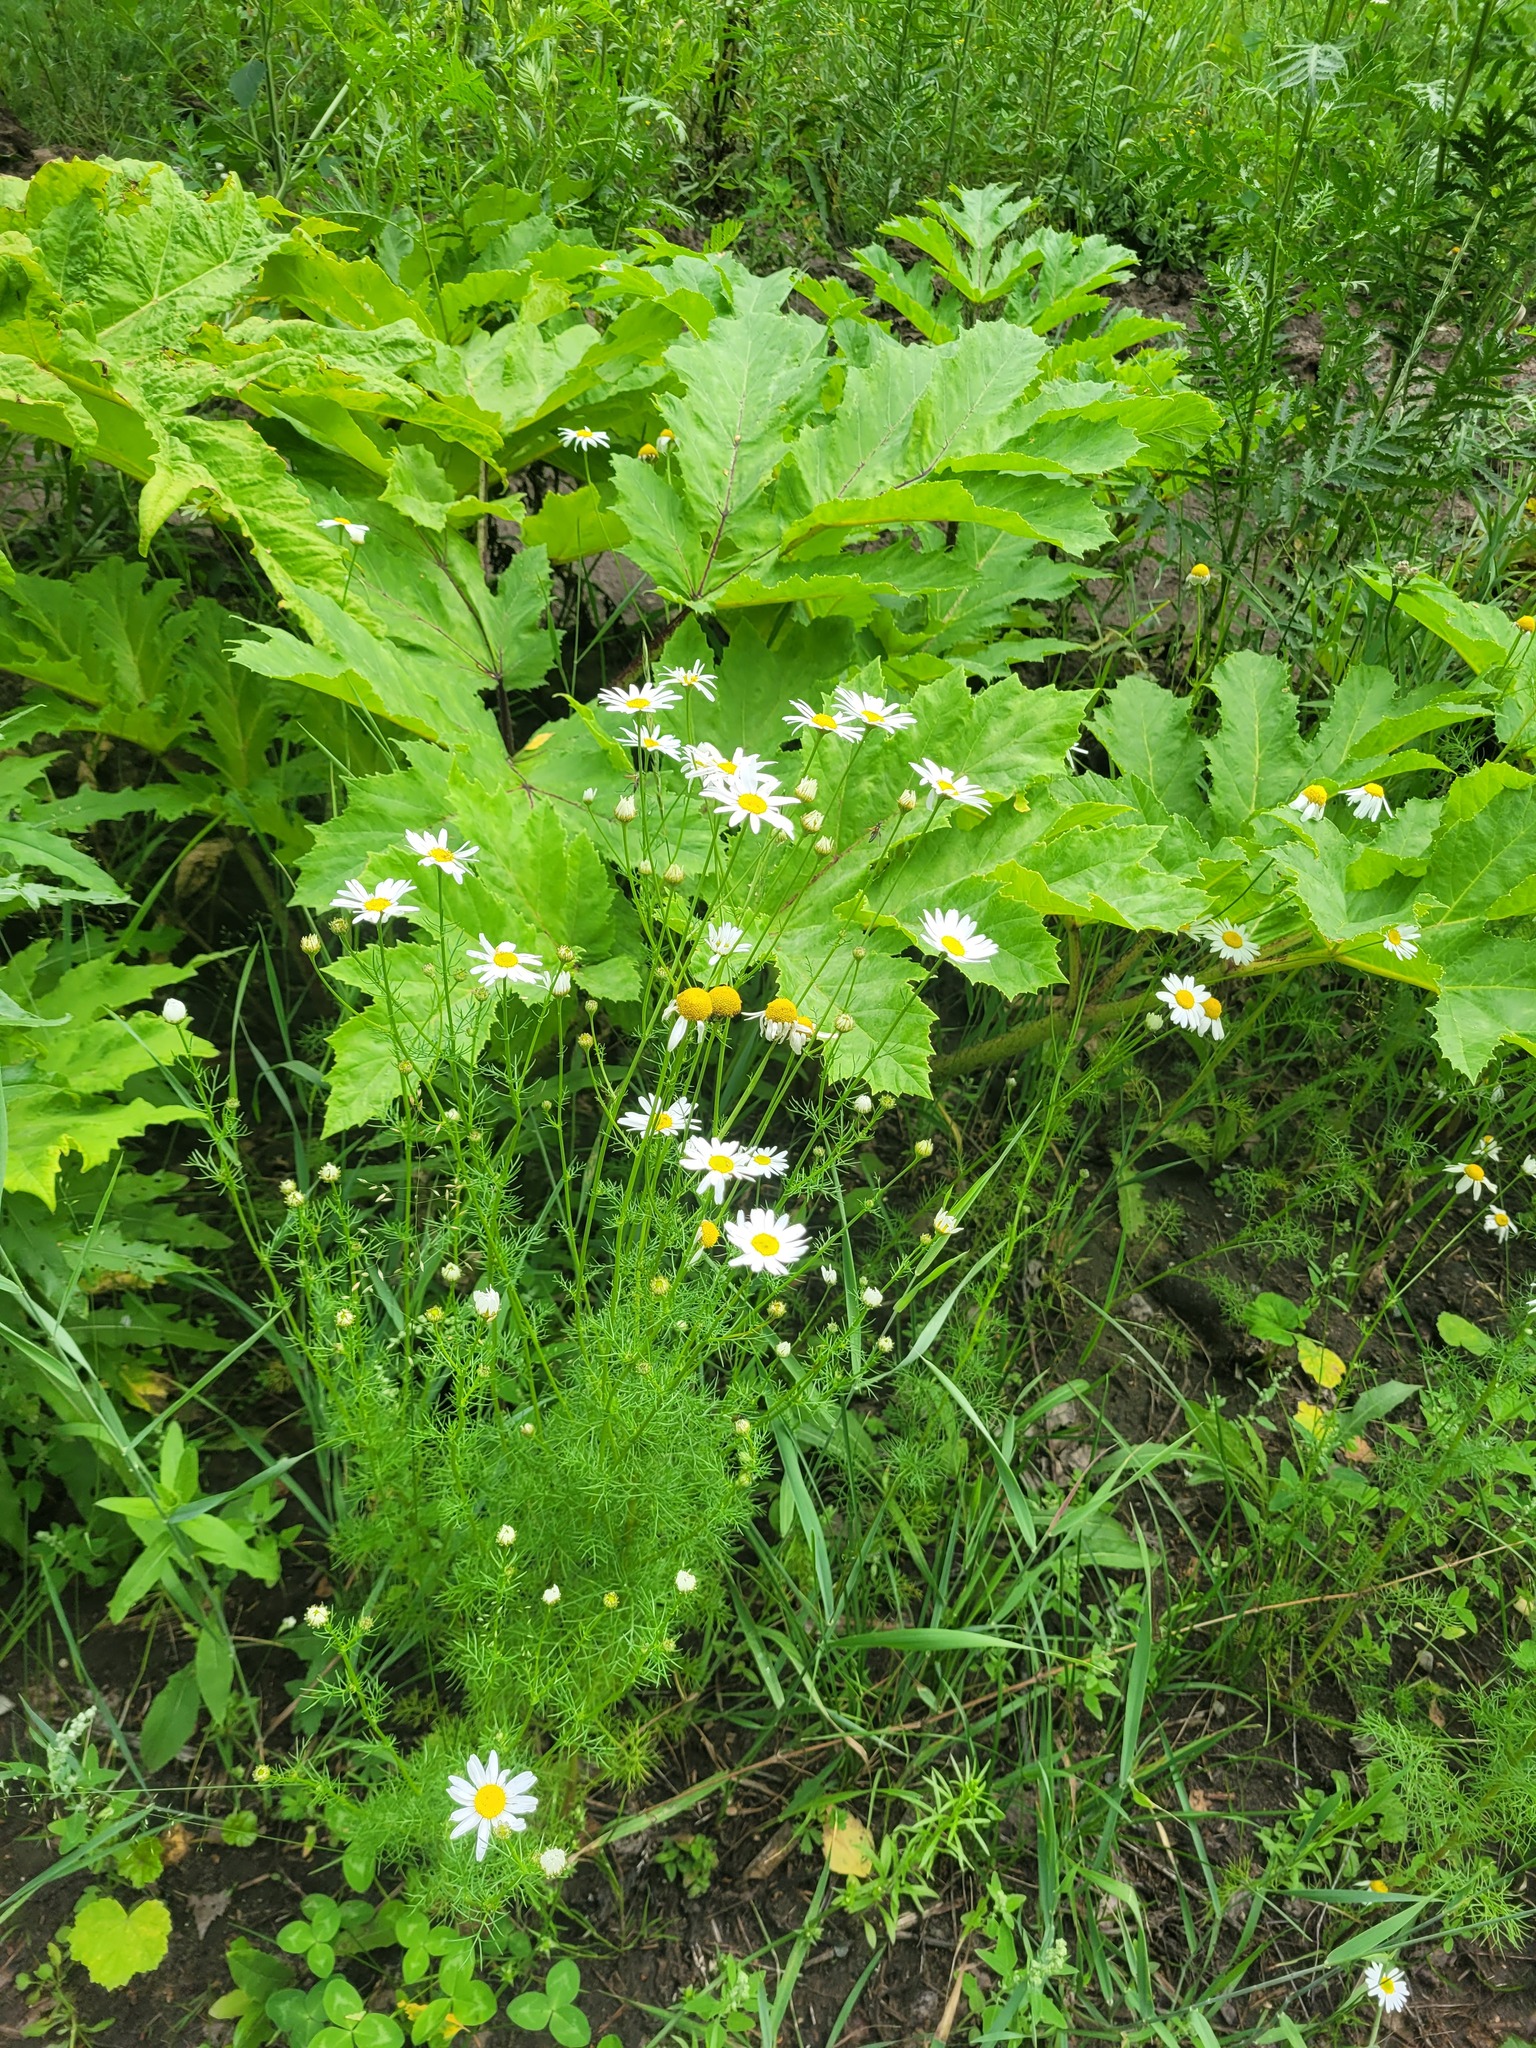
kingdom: Plantae
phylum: Tracheophyta
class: Magnoliopsida
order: Asterales
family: Asteraceae
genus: Tripleurospermum
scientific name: Tripleurospermum inodorum
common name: Scentless mayweed
